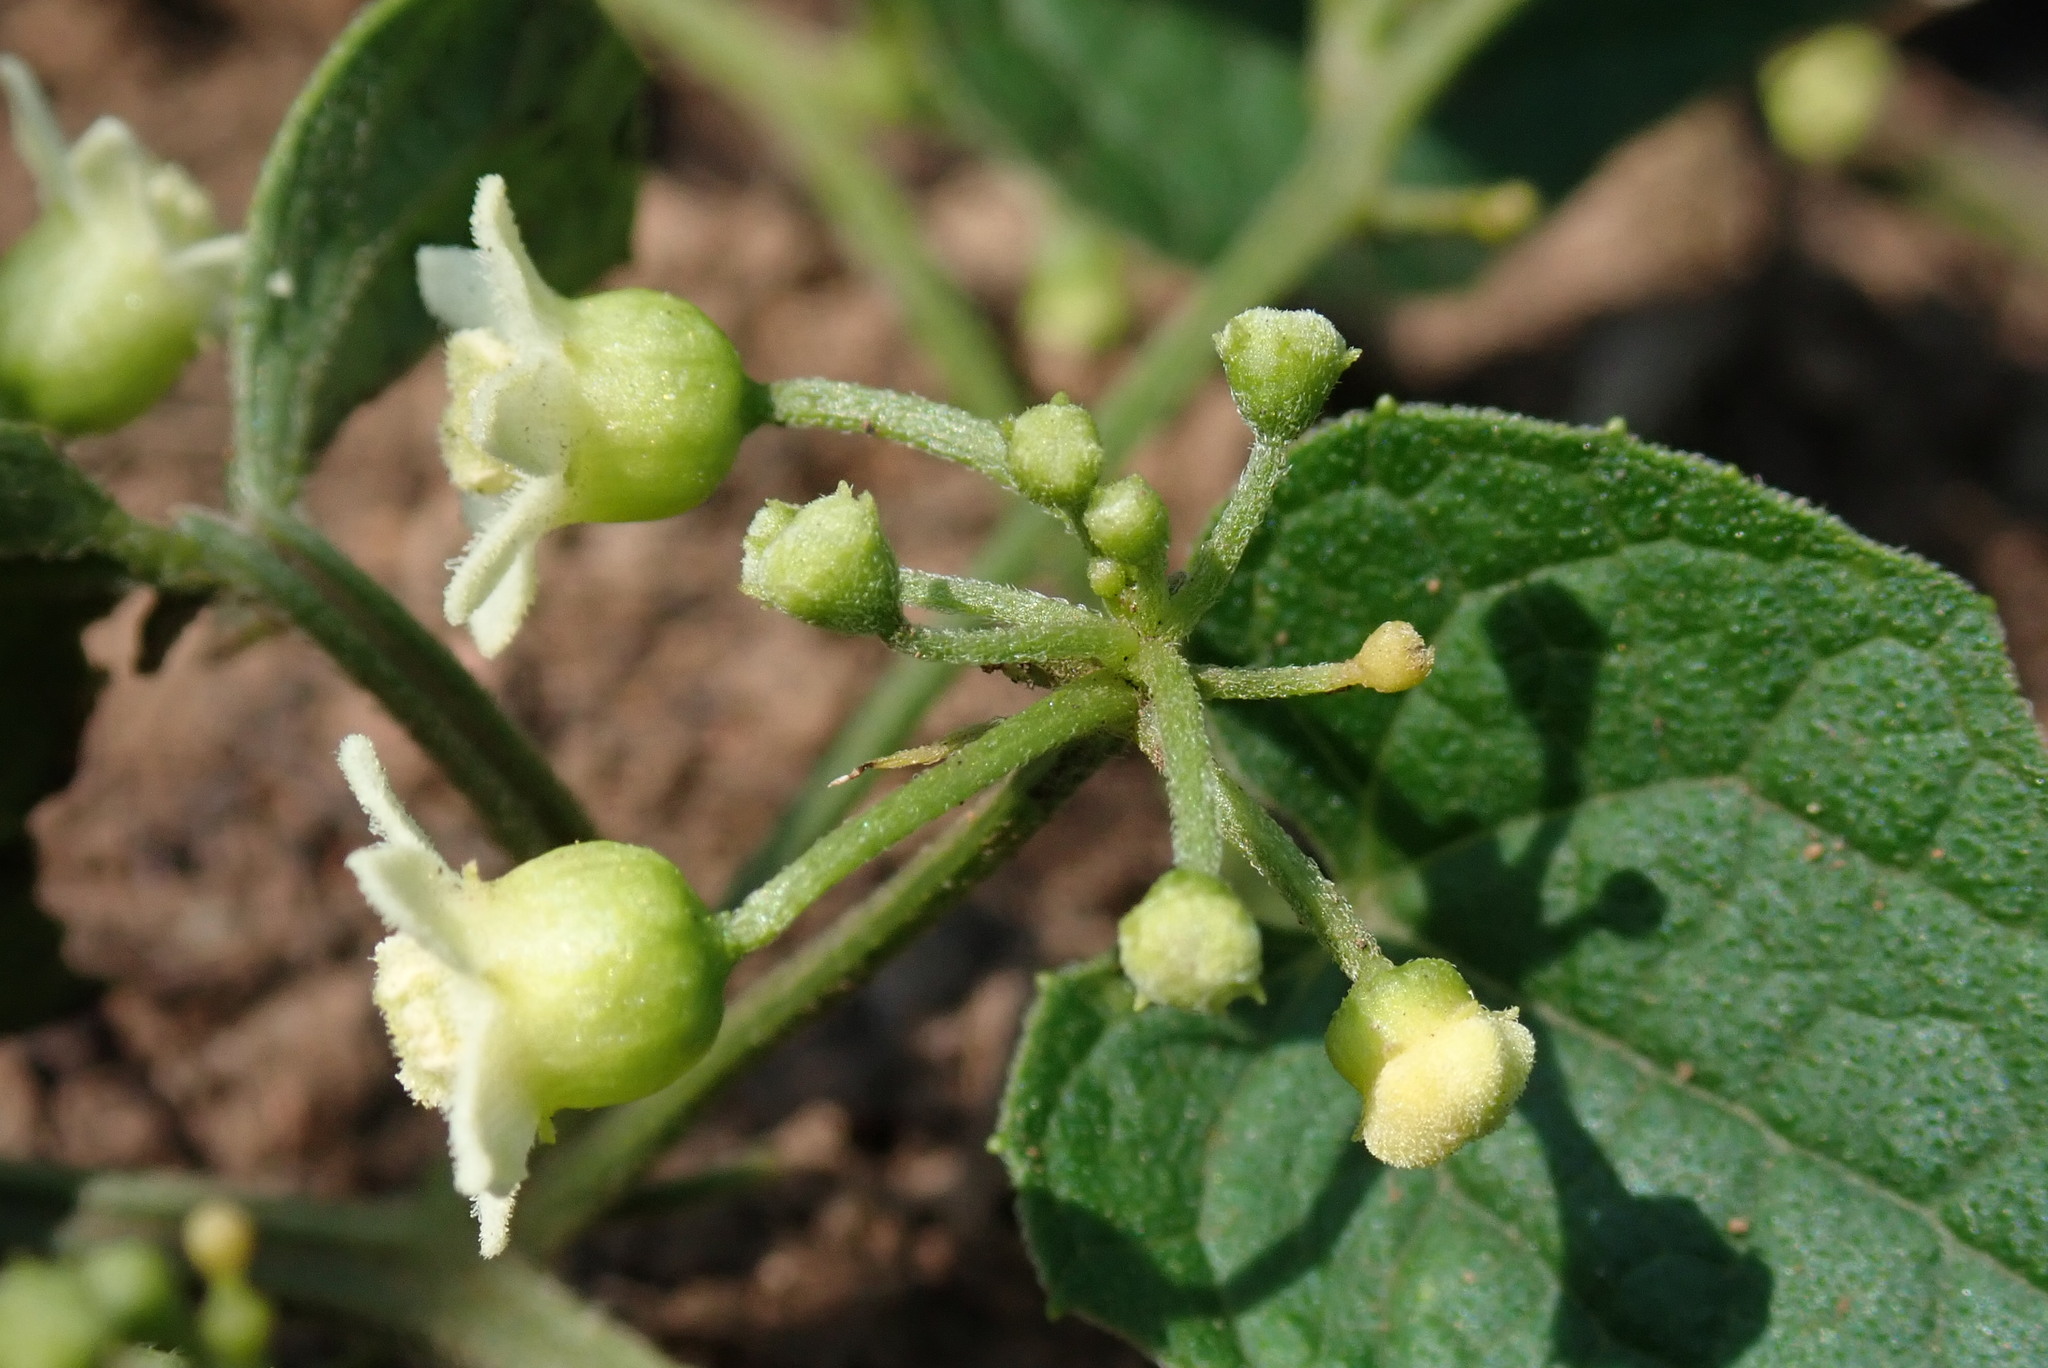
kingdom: Plantae
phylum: Tracheophyta
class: Magnoliopsida
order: Cucurbitales
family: Cucurbitaceae
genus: Zehneria
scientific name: Zehneria scabra
